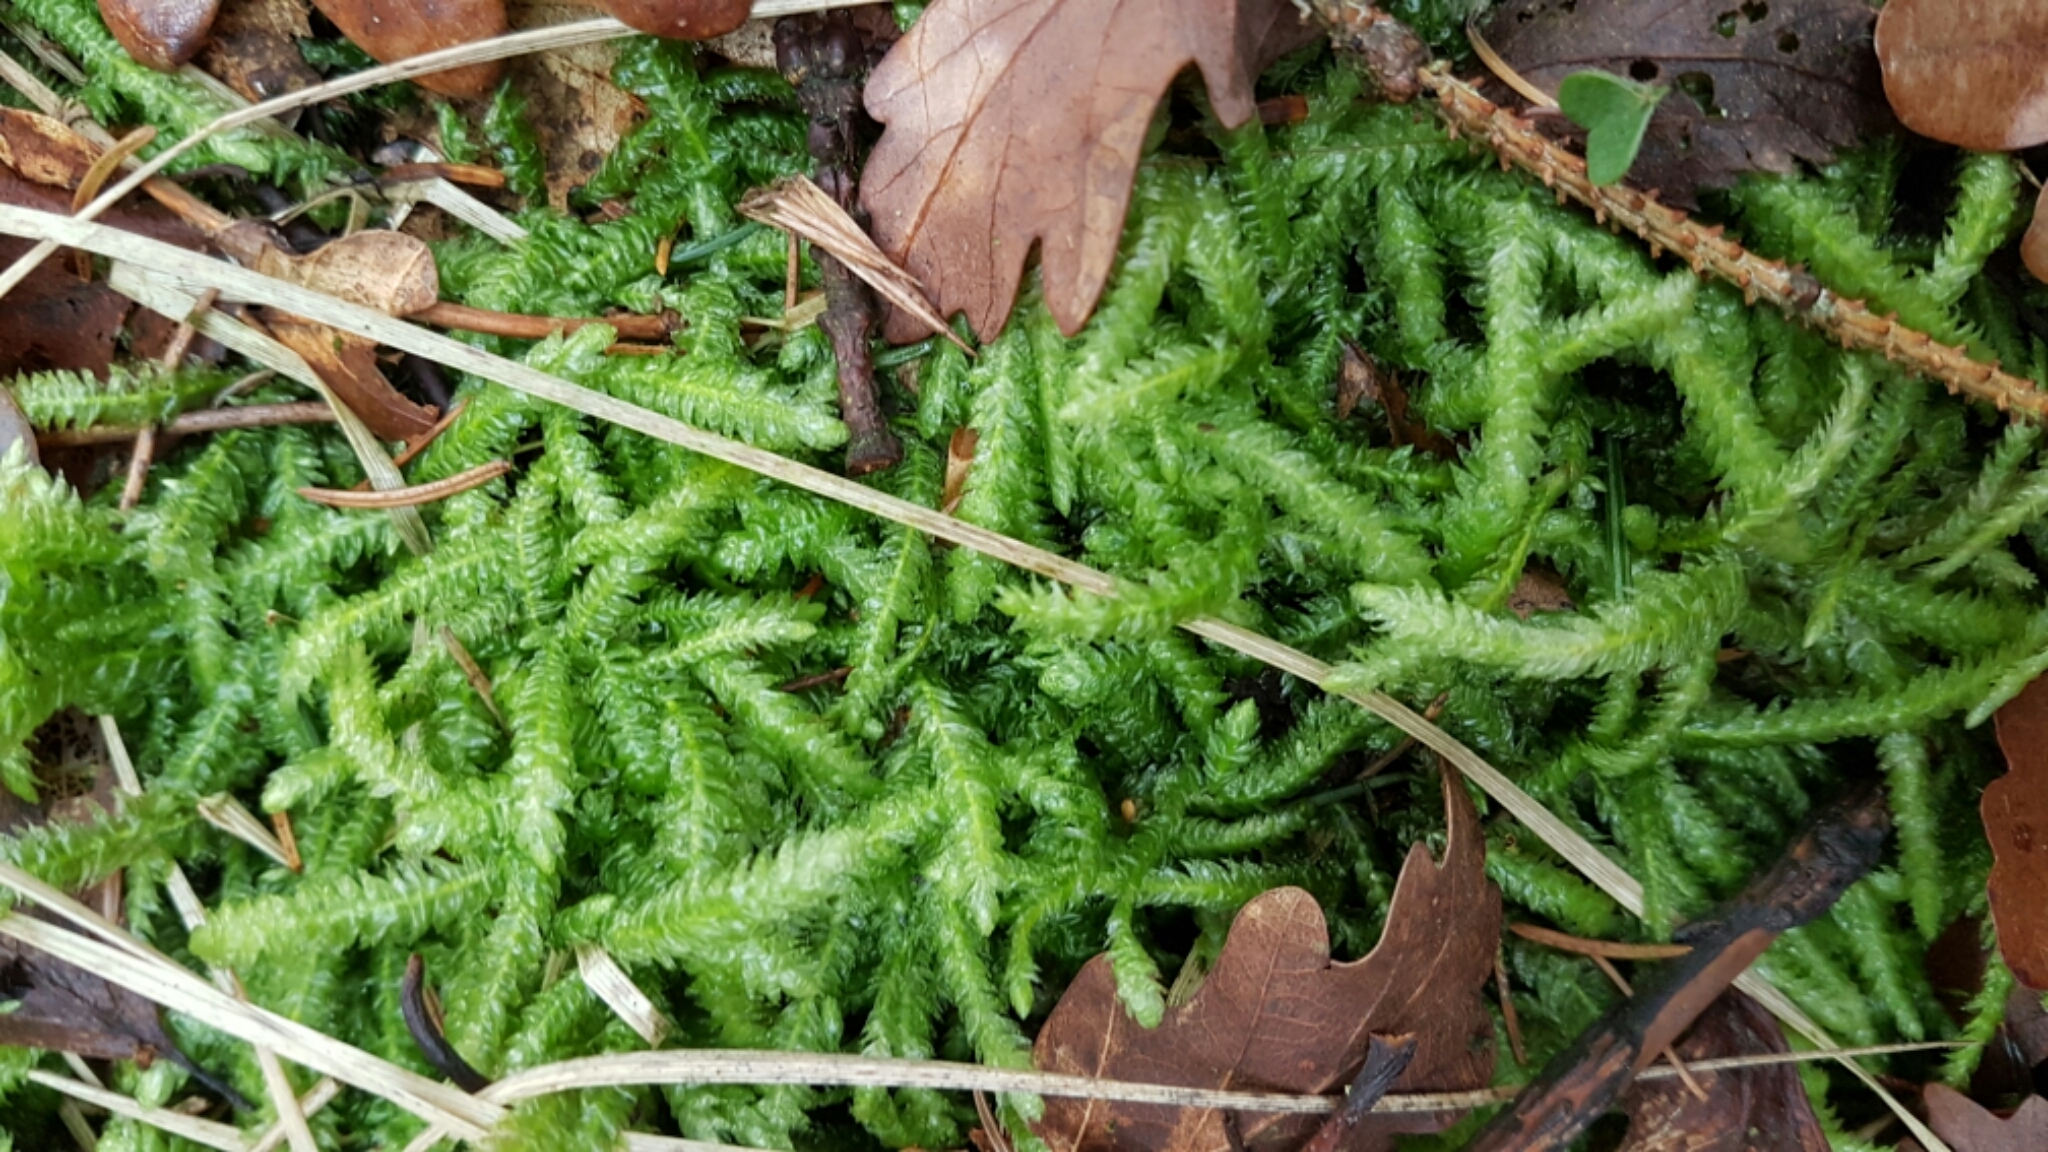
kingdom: Plantae
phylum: Bryophyta
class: Bryopsida
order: Hypnales
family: Plagiotheciaceae
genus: Plagiothecium
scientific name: Plagiothecium undulatum
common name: Waved silk-moss
